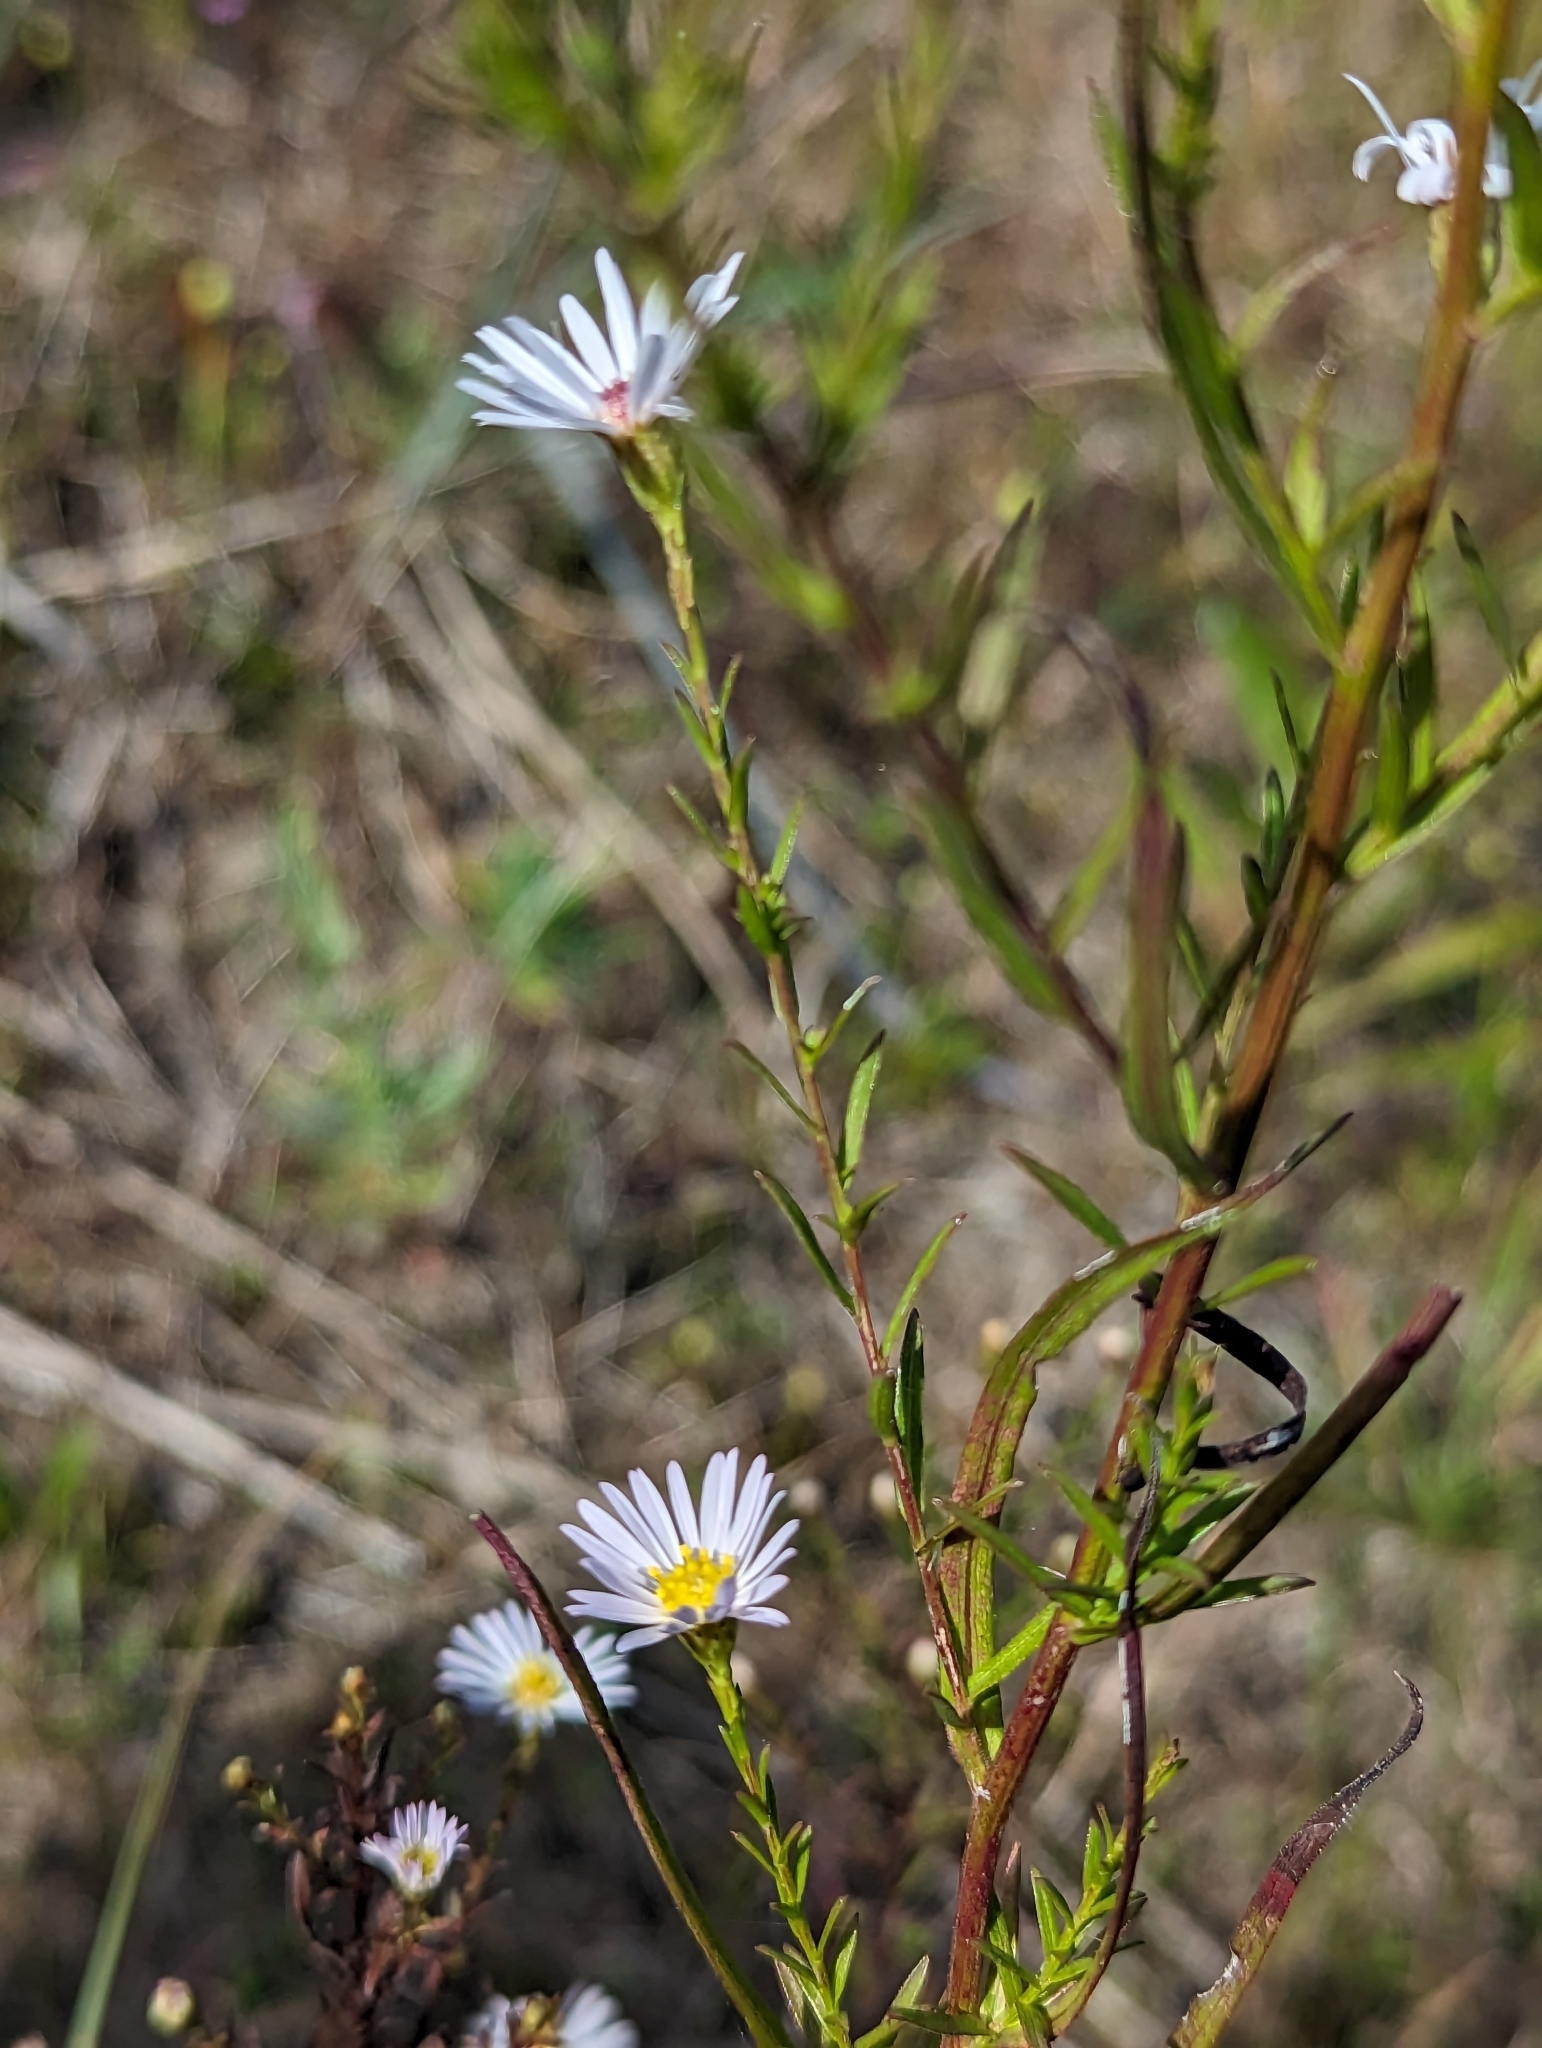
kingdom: Plantae
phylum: Tracheophyta
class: Magnoliopsida
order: Asterales
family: Asteraceae
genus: Symphyotrichum
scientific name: Symphyotrichum dumosum
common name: Bushy aster
